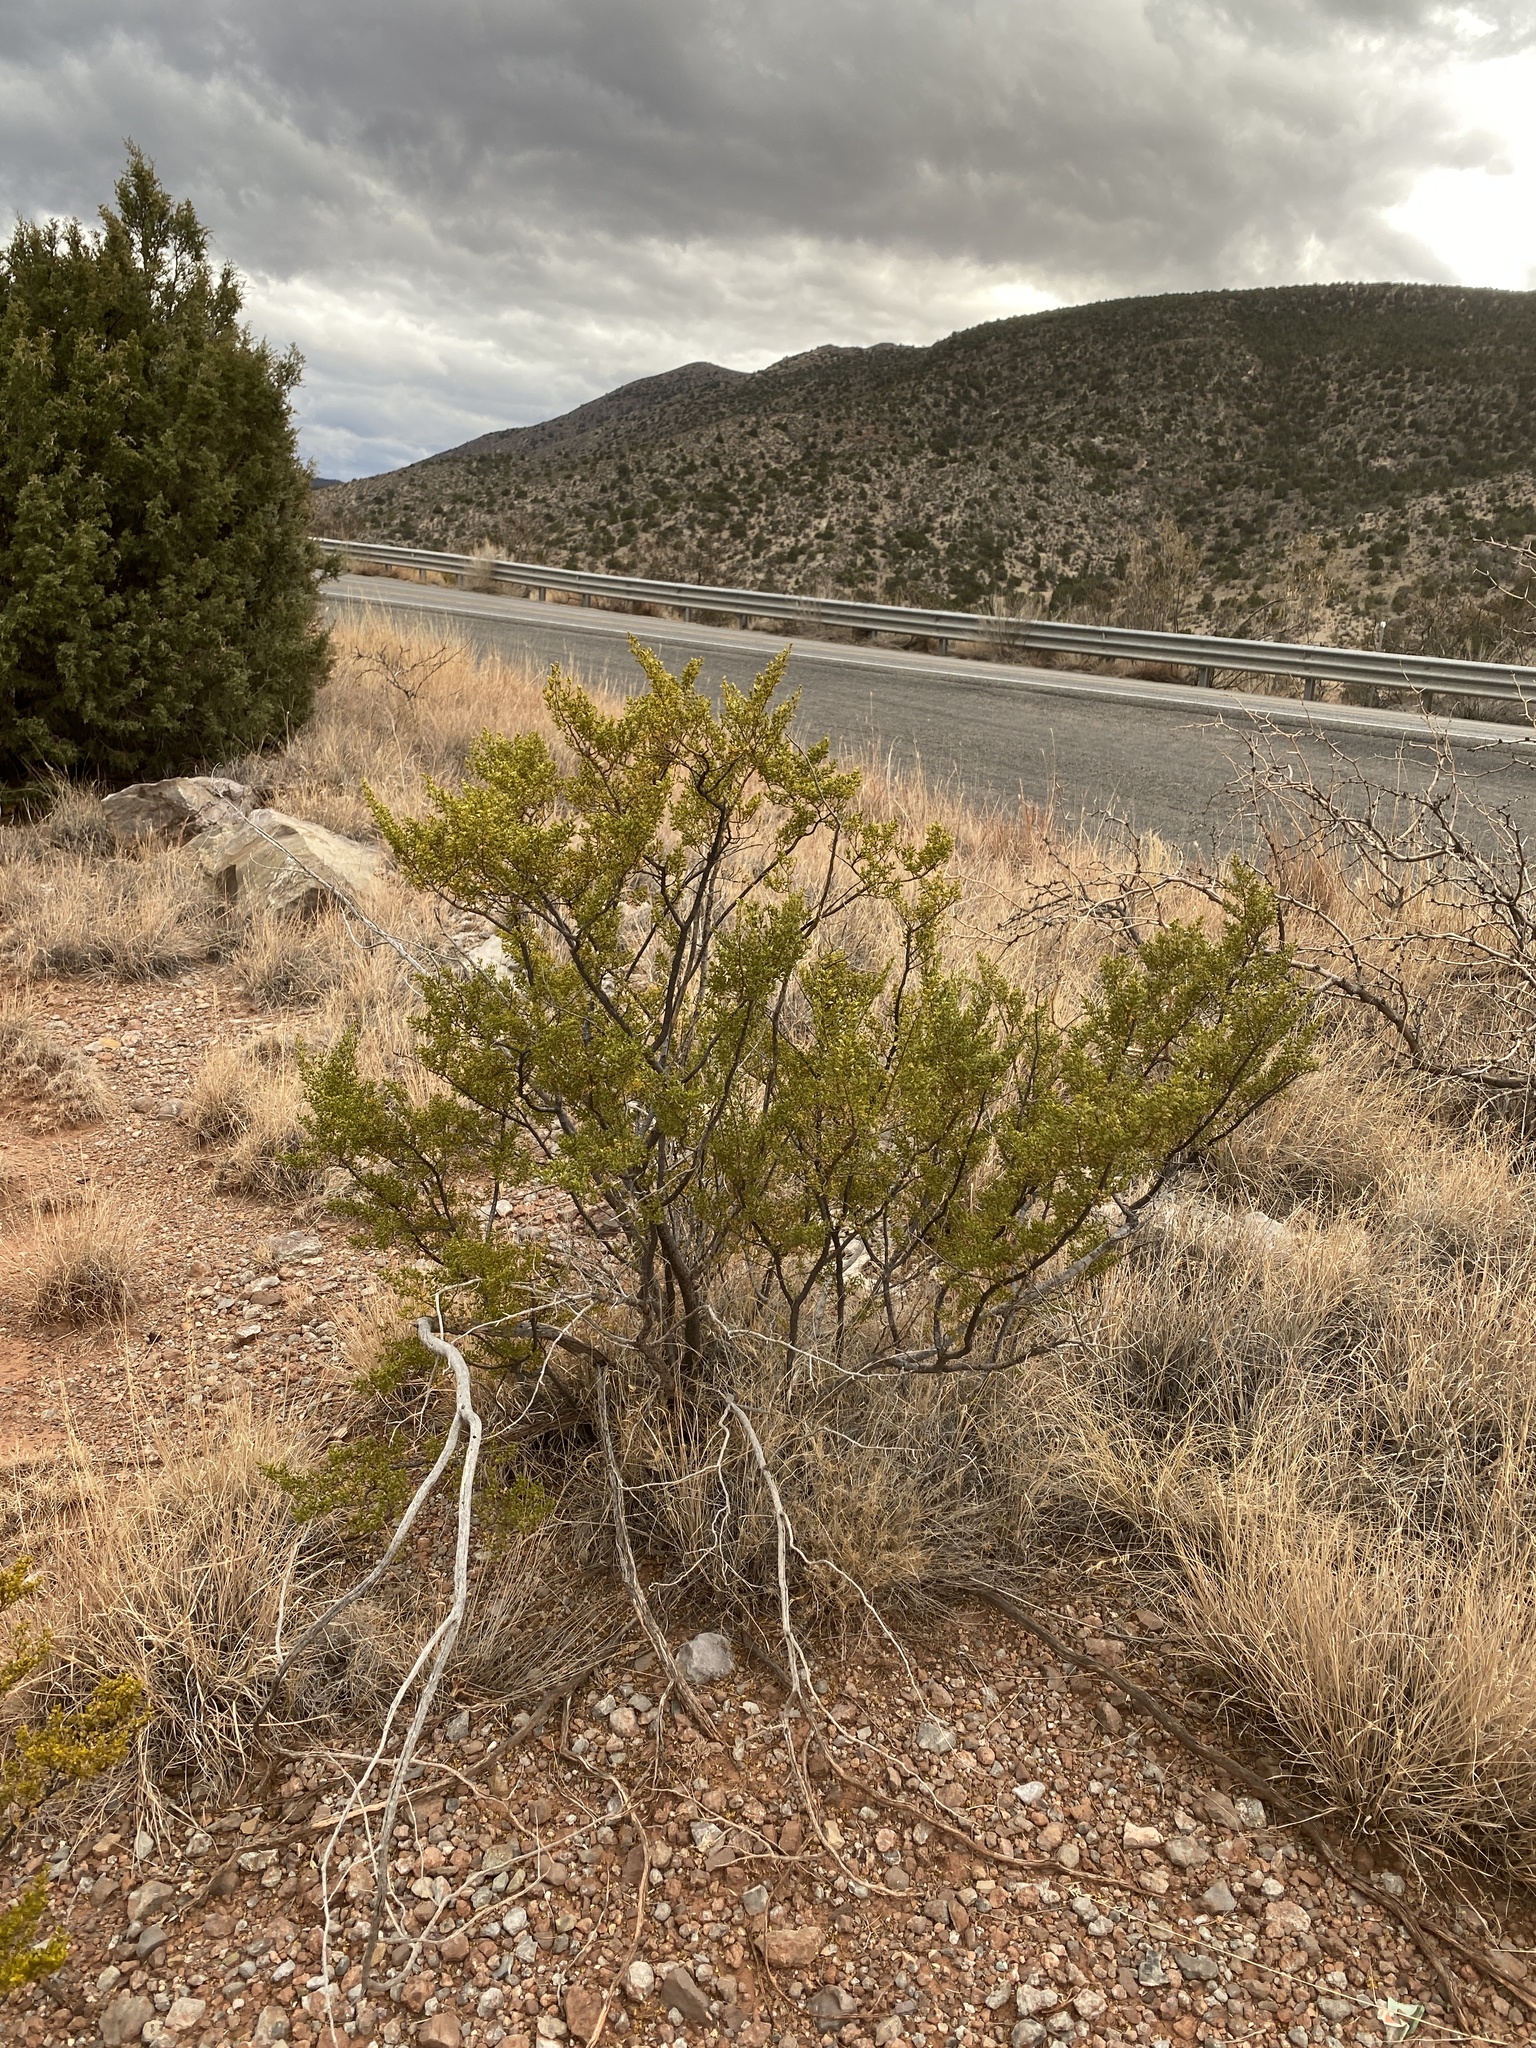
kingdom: Plantae
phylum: Tracheophyta
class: Magnoliopsida
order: Zygophyllales
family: Zygophyllaceae
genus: Larrea
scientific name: Larrea tridentata
